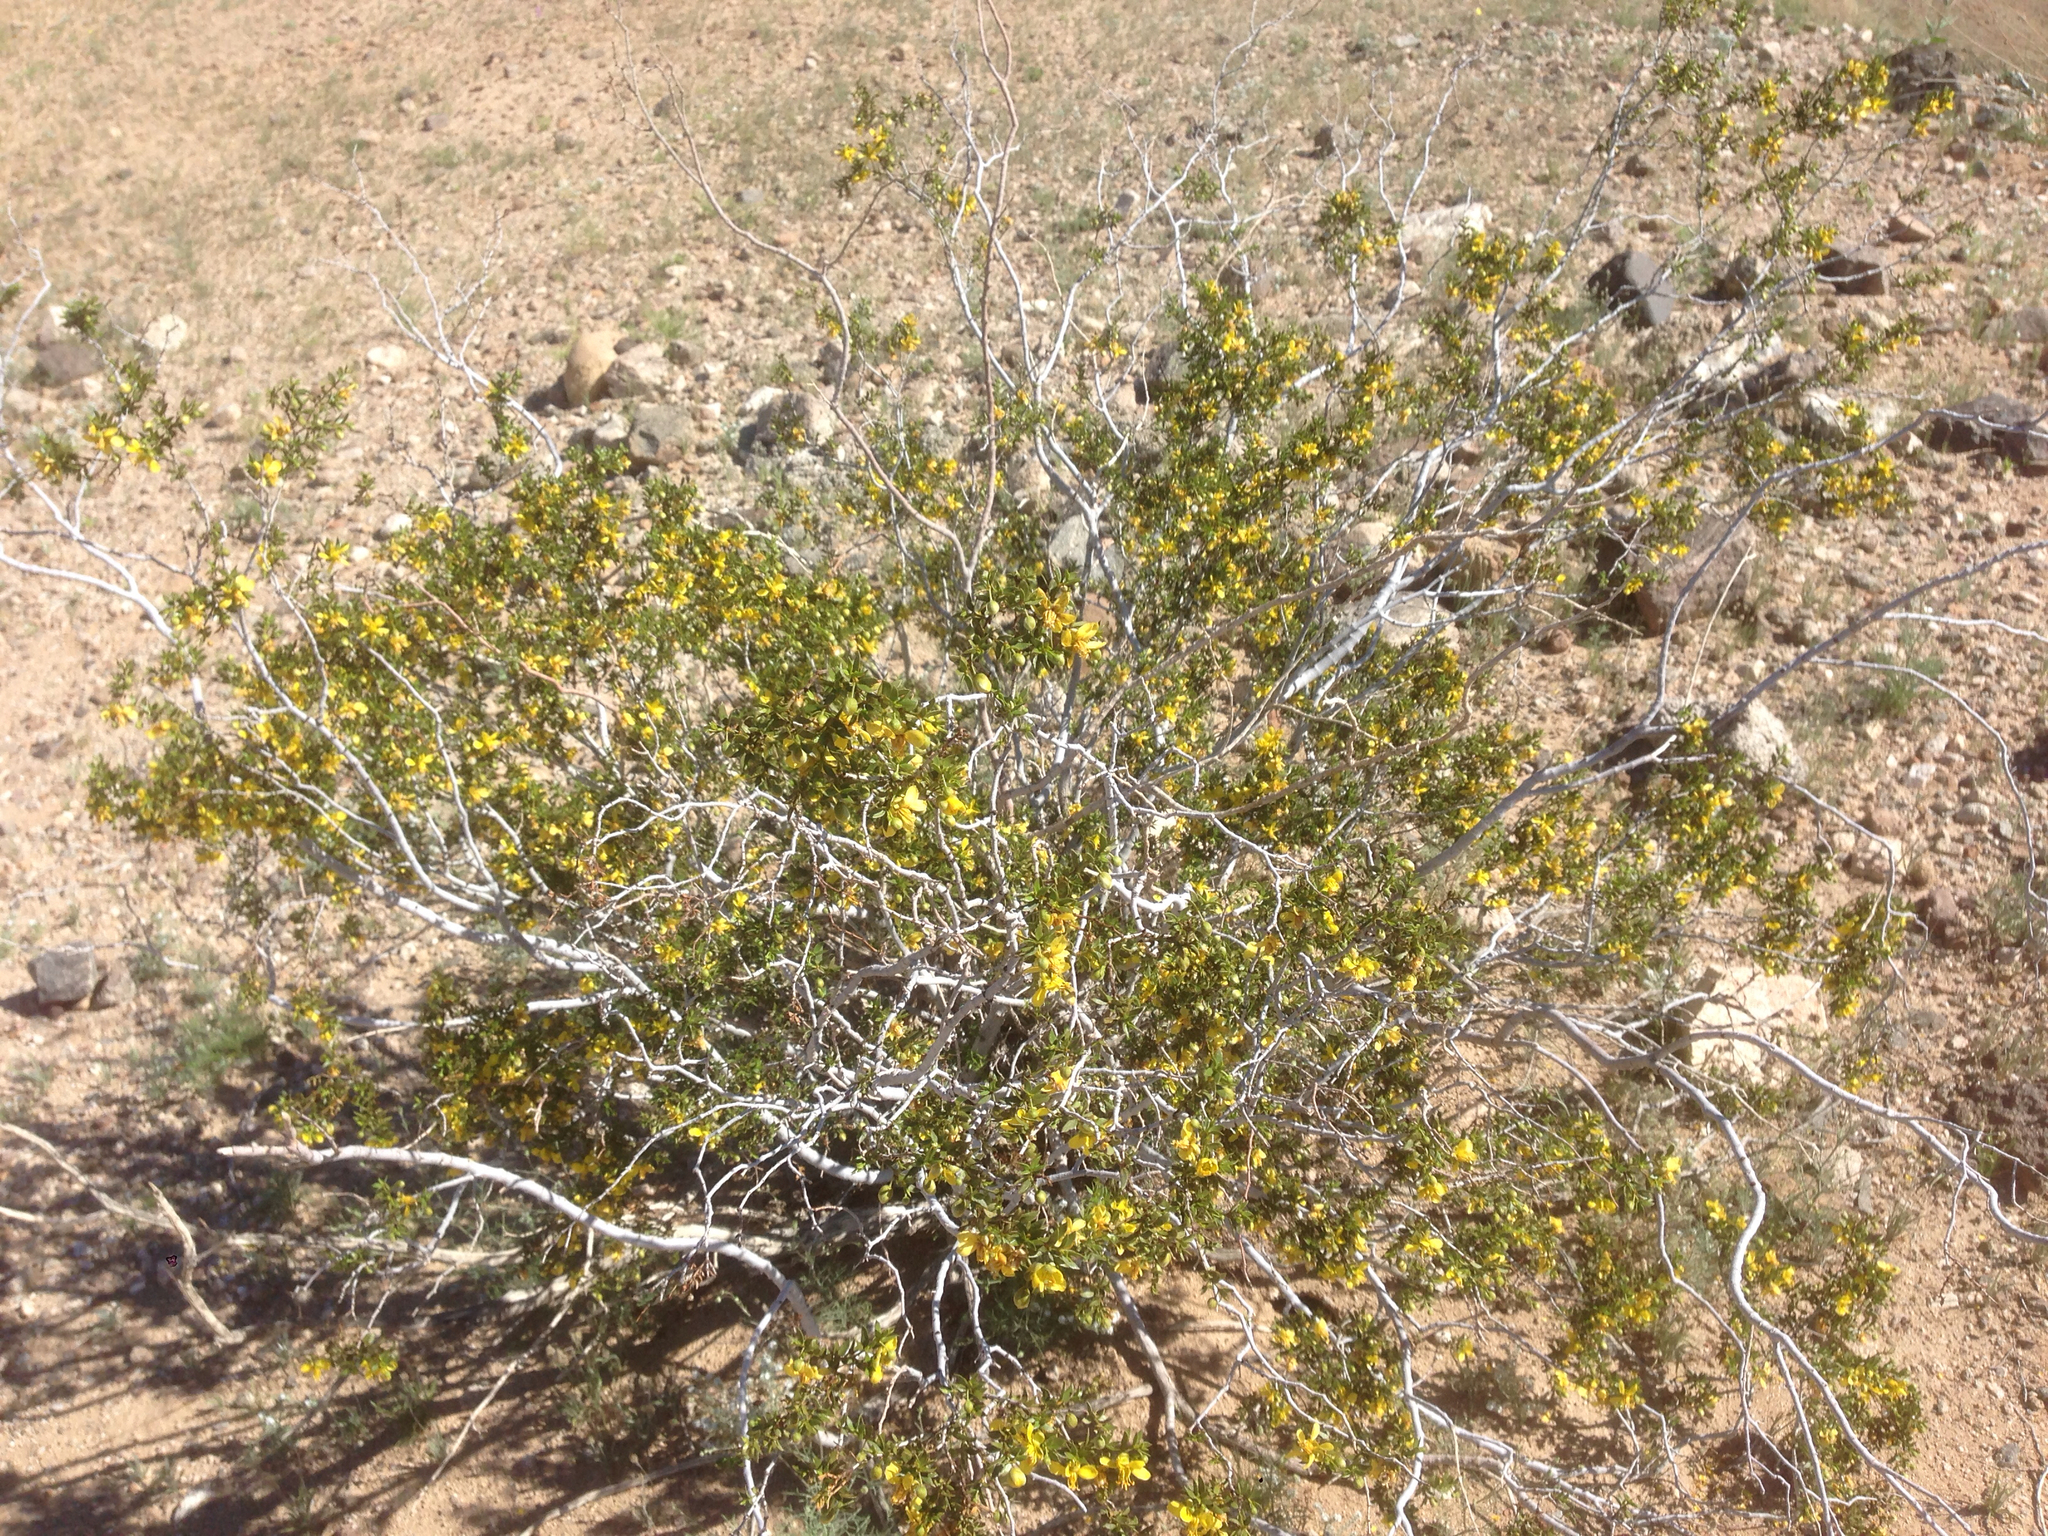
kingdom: Plantae
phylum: Tracheophyta
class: Magnoliopsida
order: Zygophyllales
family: Zygophyllaceae
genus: Larrea
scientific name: Larrea tridentata
